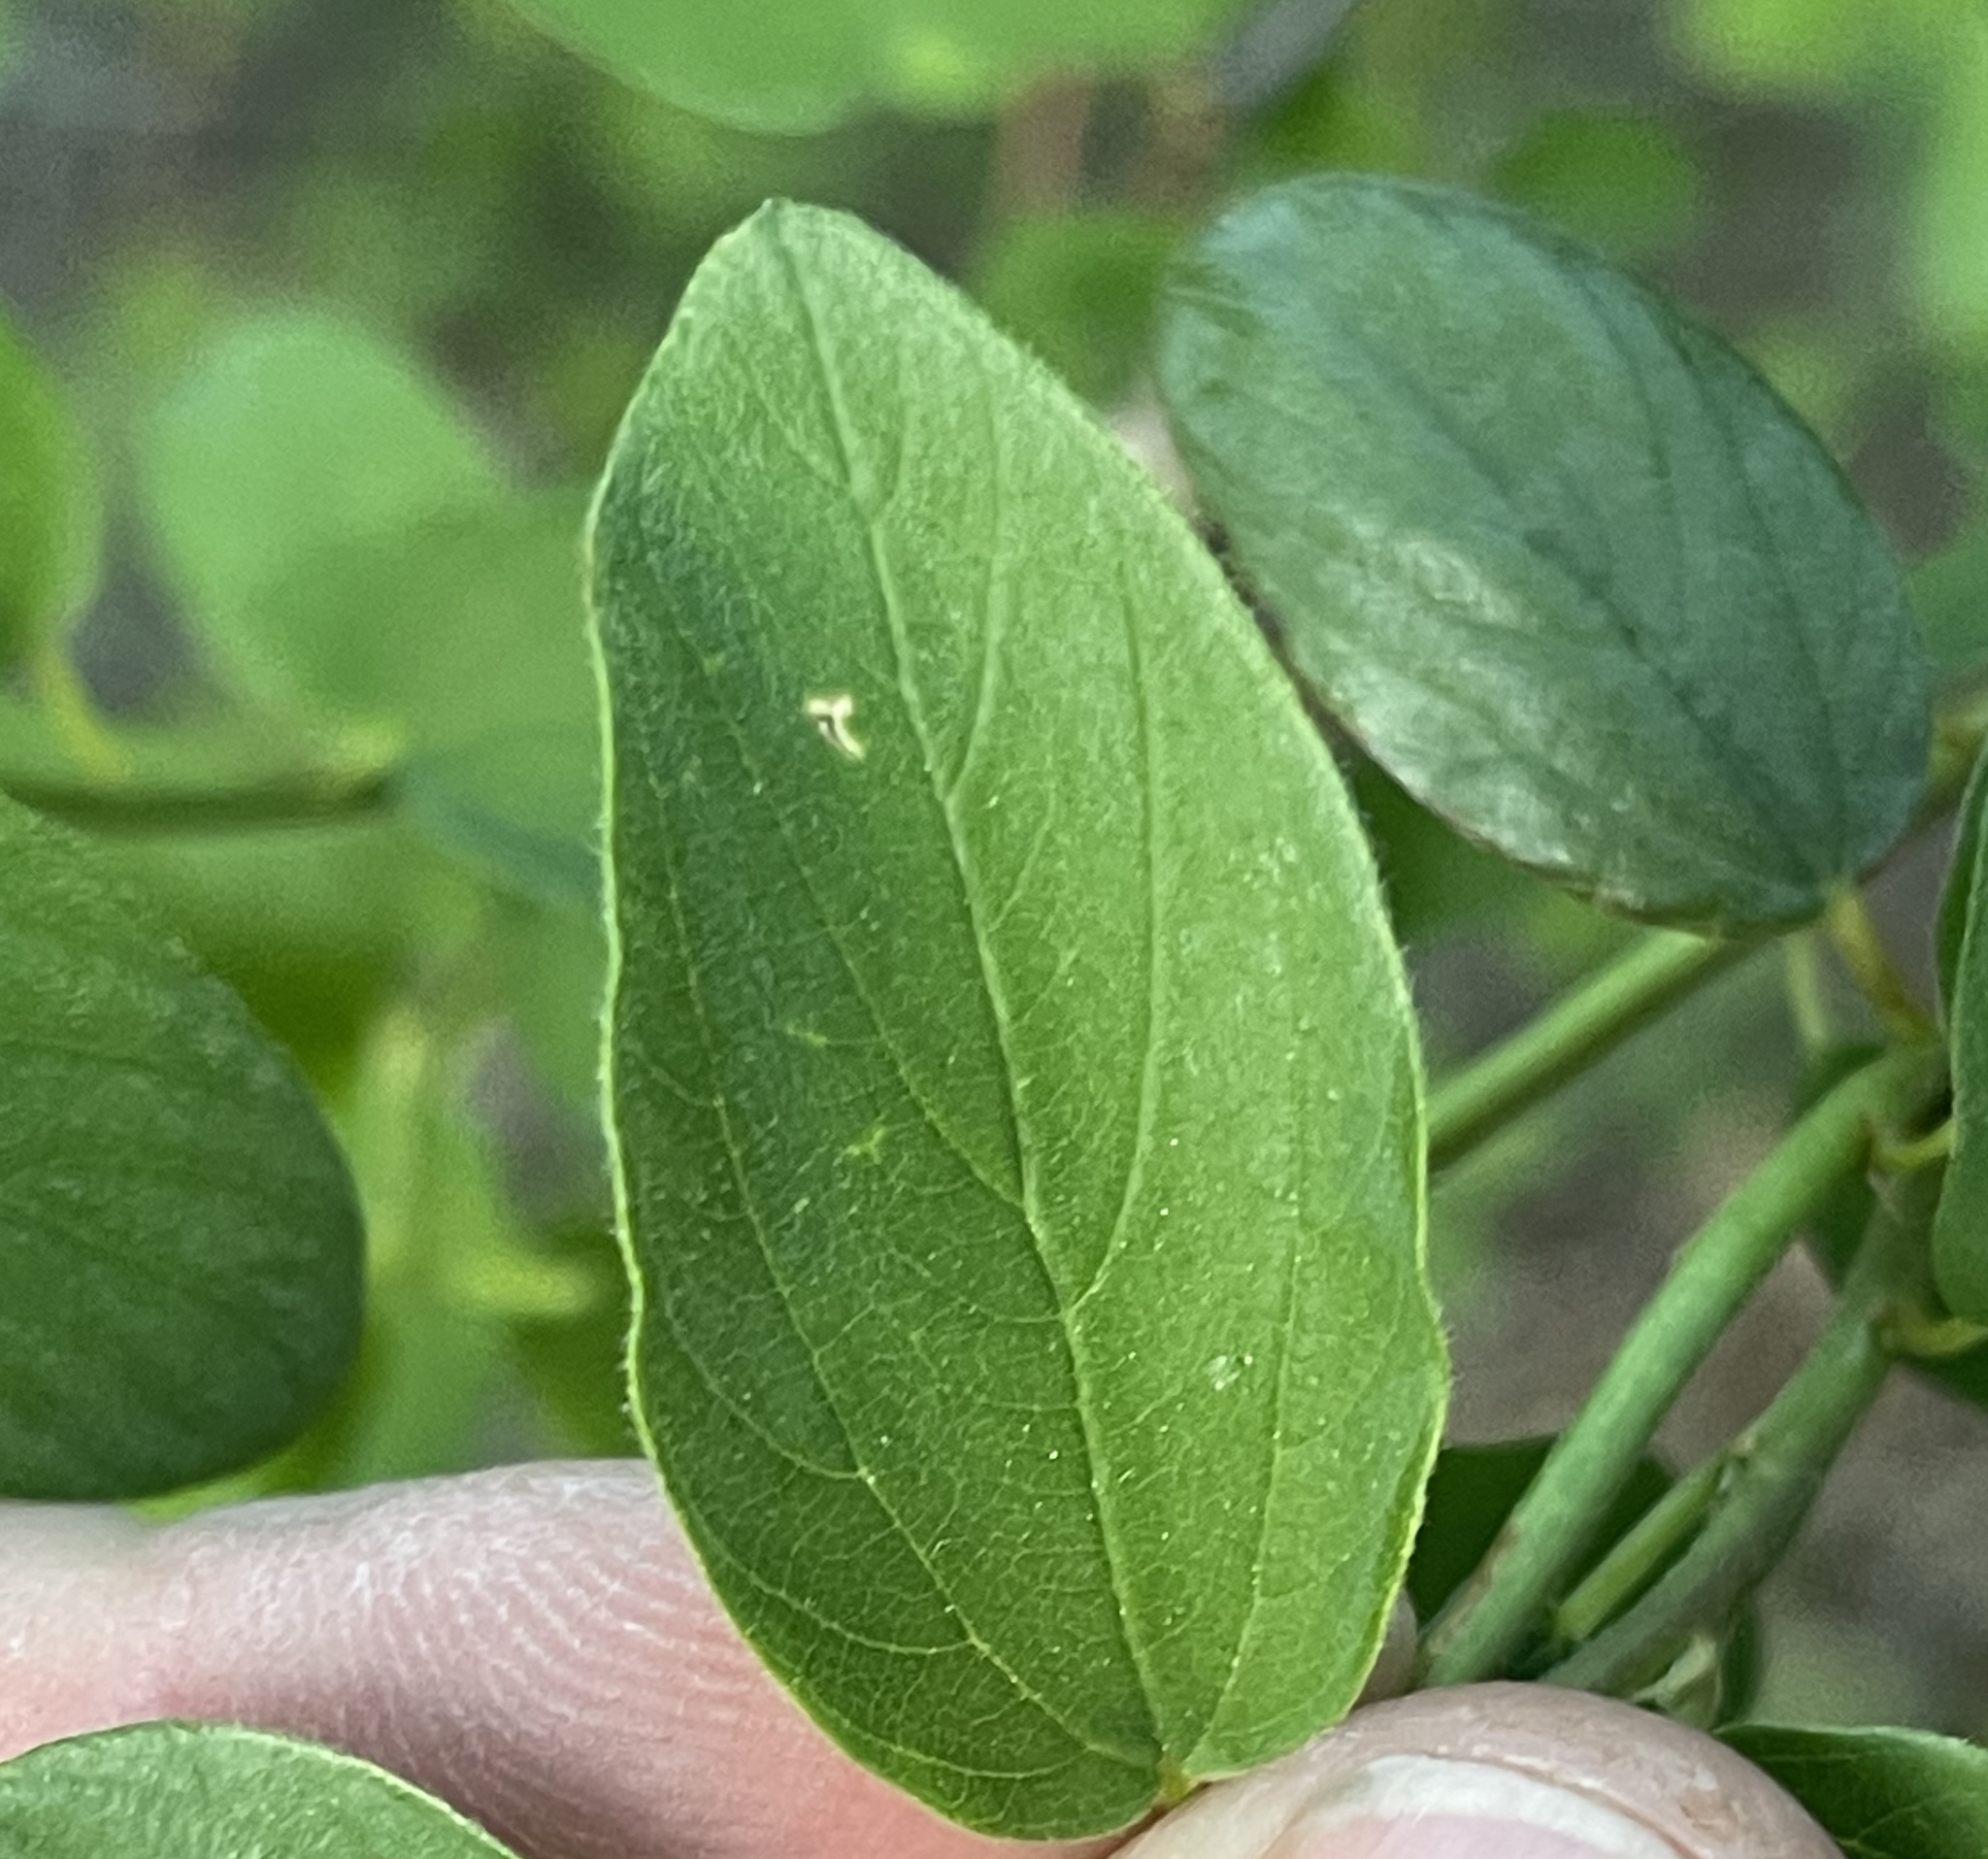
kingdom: Plantae
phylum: Tracheophyta
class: Magnoliopsida
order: Rosales
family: Rhamnaceae
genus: Ceanothus
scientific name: Ceanothus integerrimus
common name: Deerbrush ceanothus
